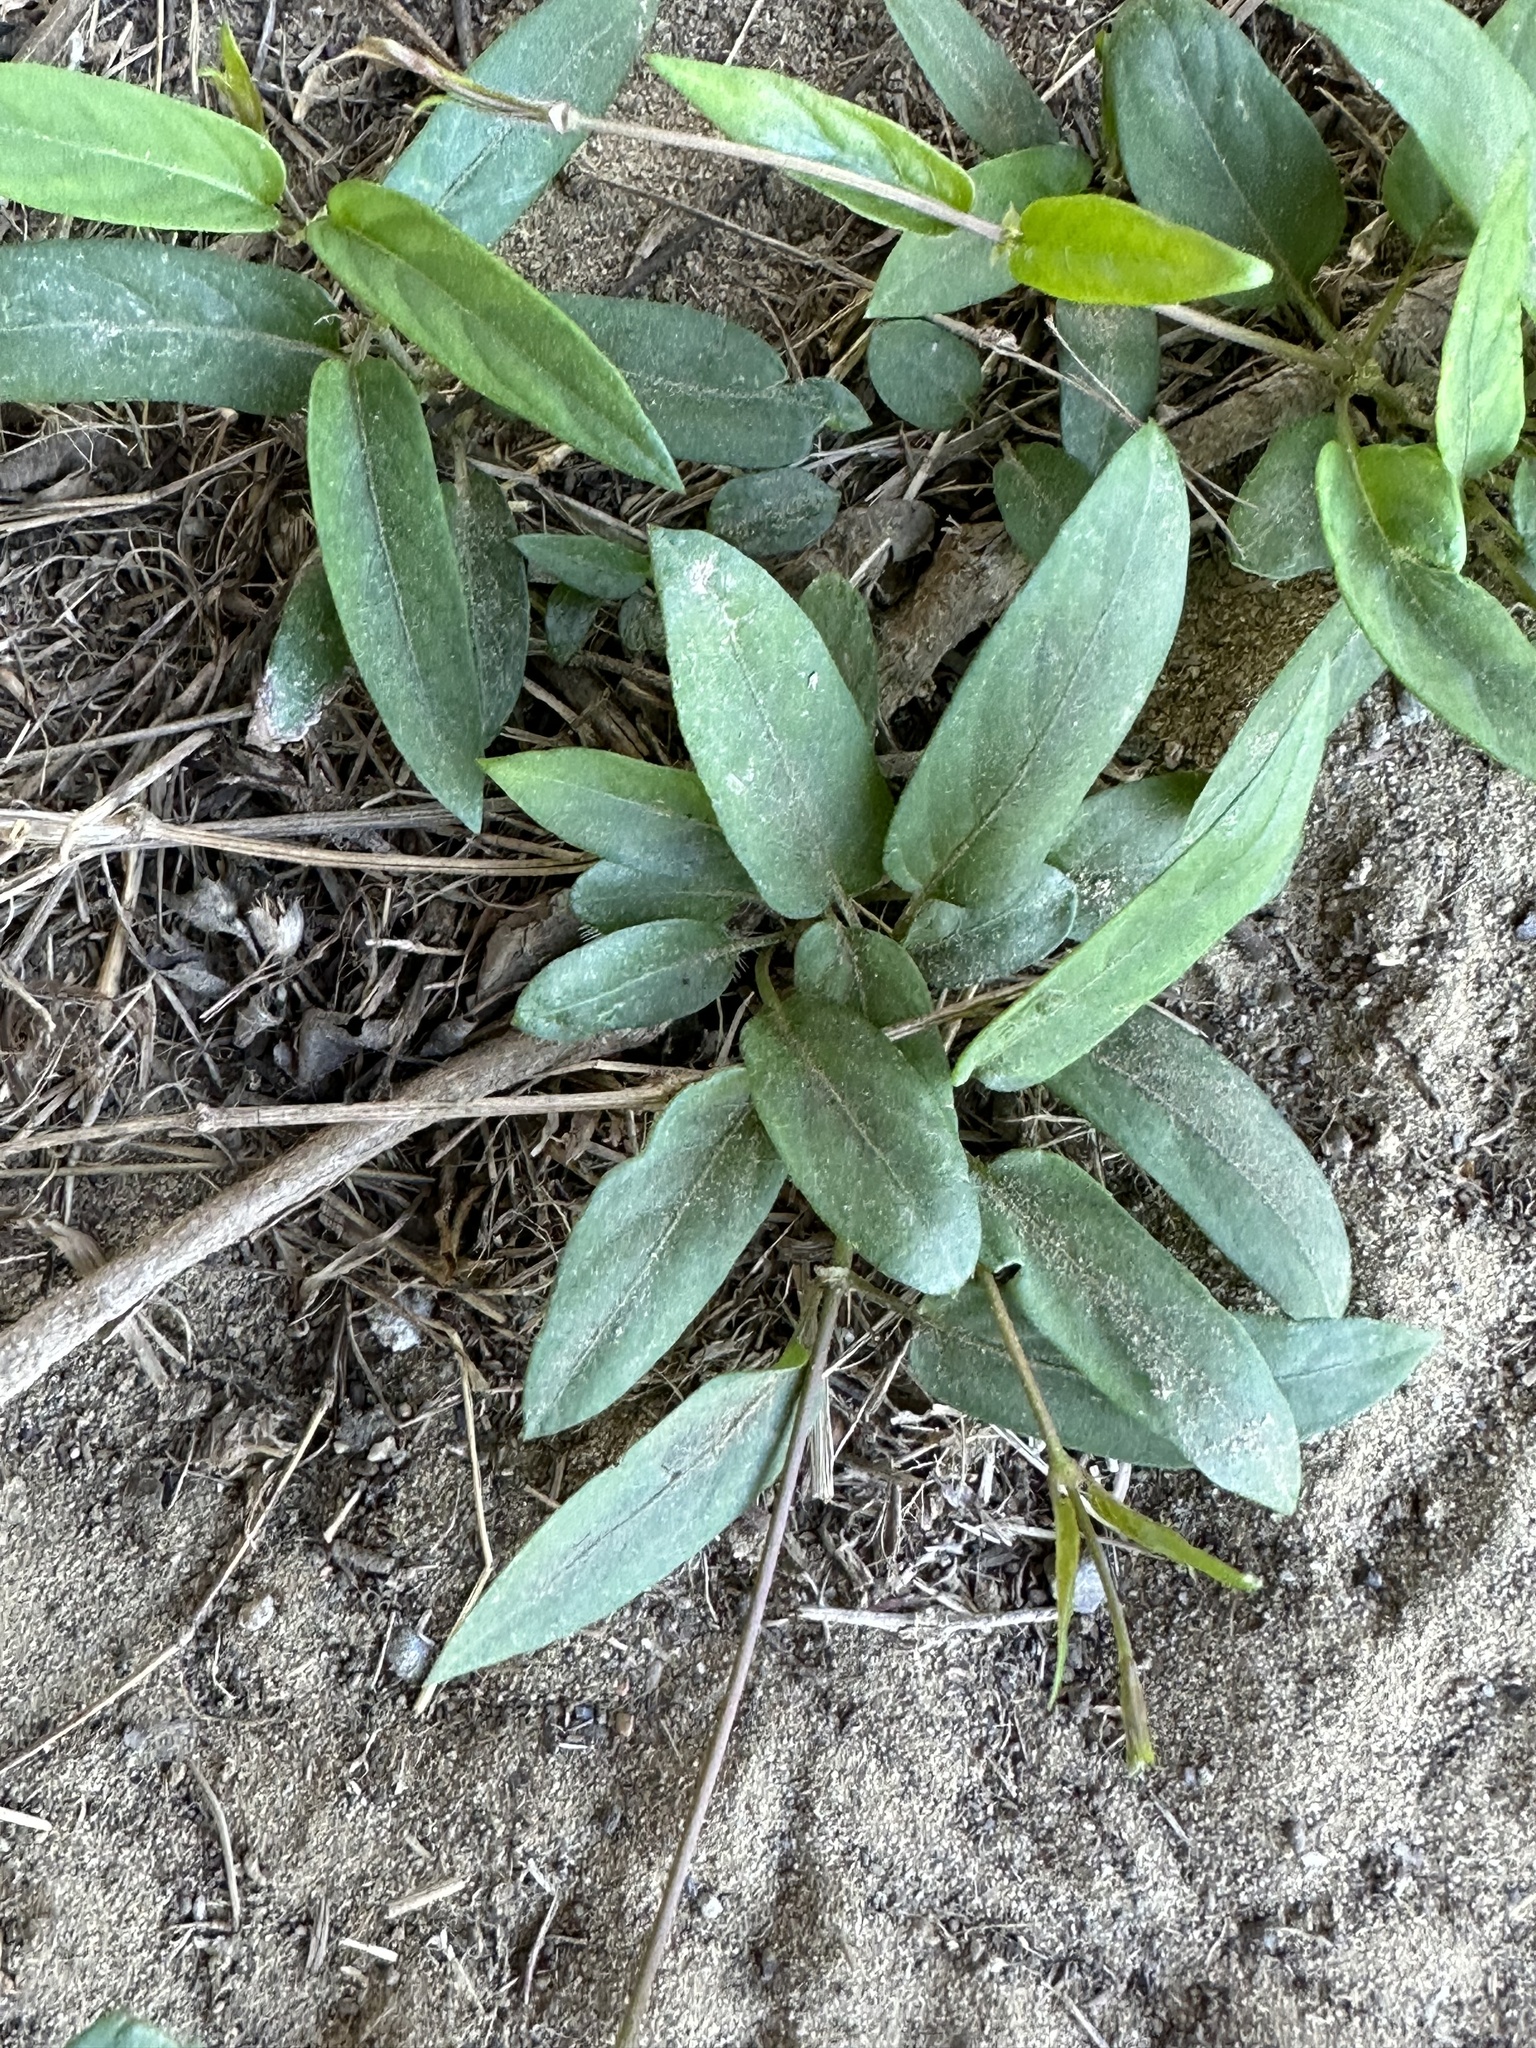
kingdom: Plantae
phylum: Tracheophyta
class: Magnoliopsida
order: Gentianales
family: Rubiaceae
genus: Paederia
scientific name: Paederia foetida
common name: Stinkvine
